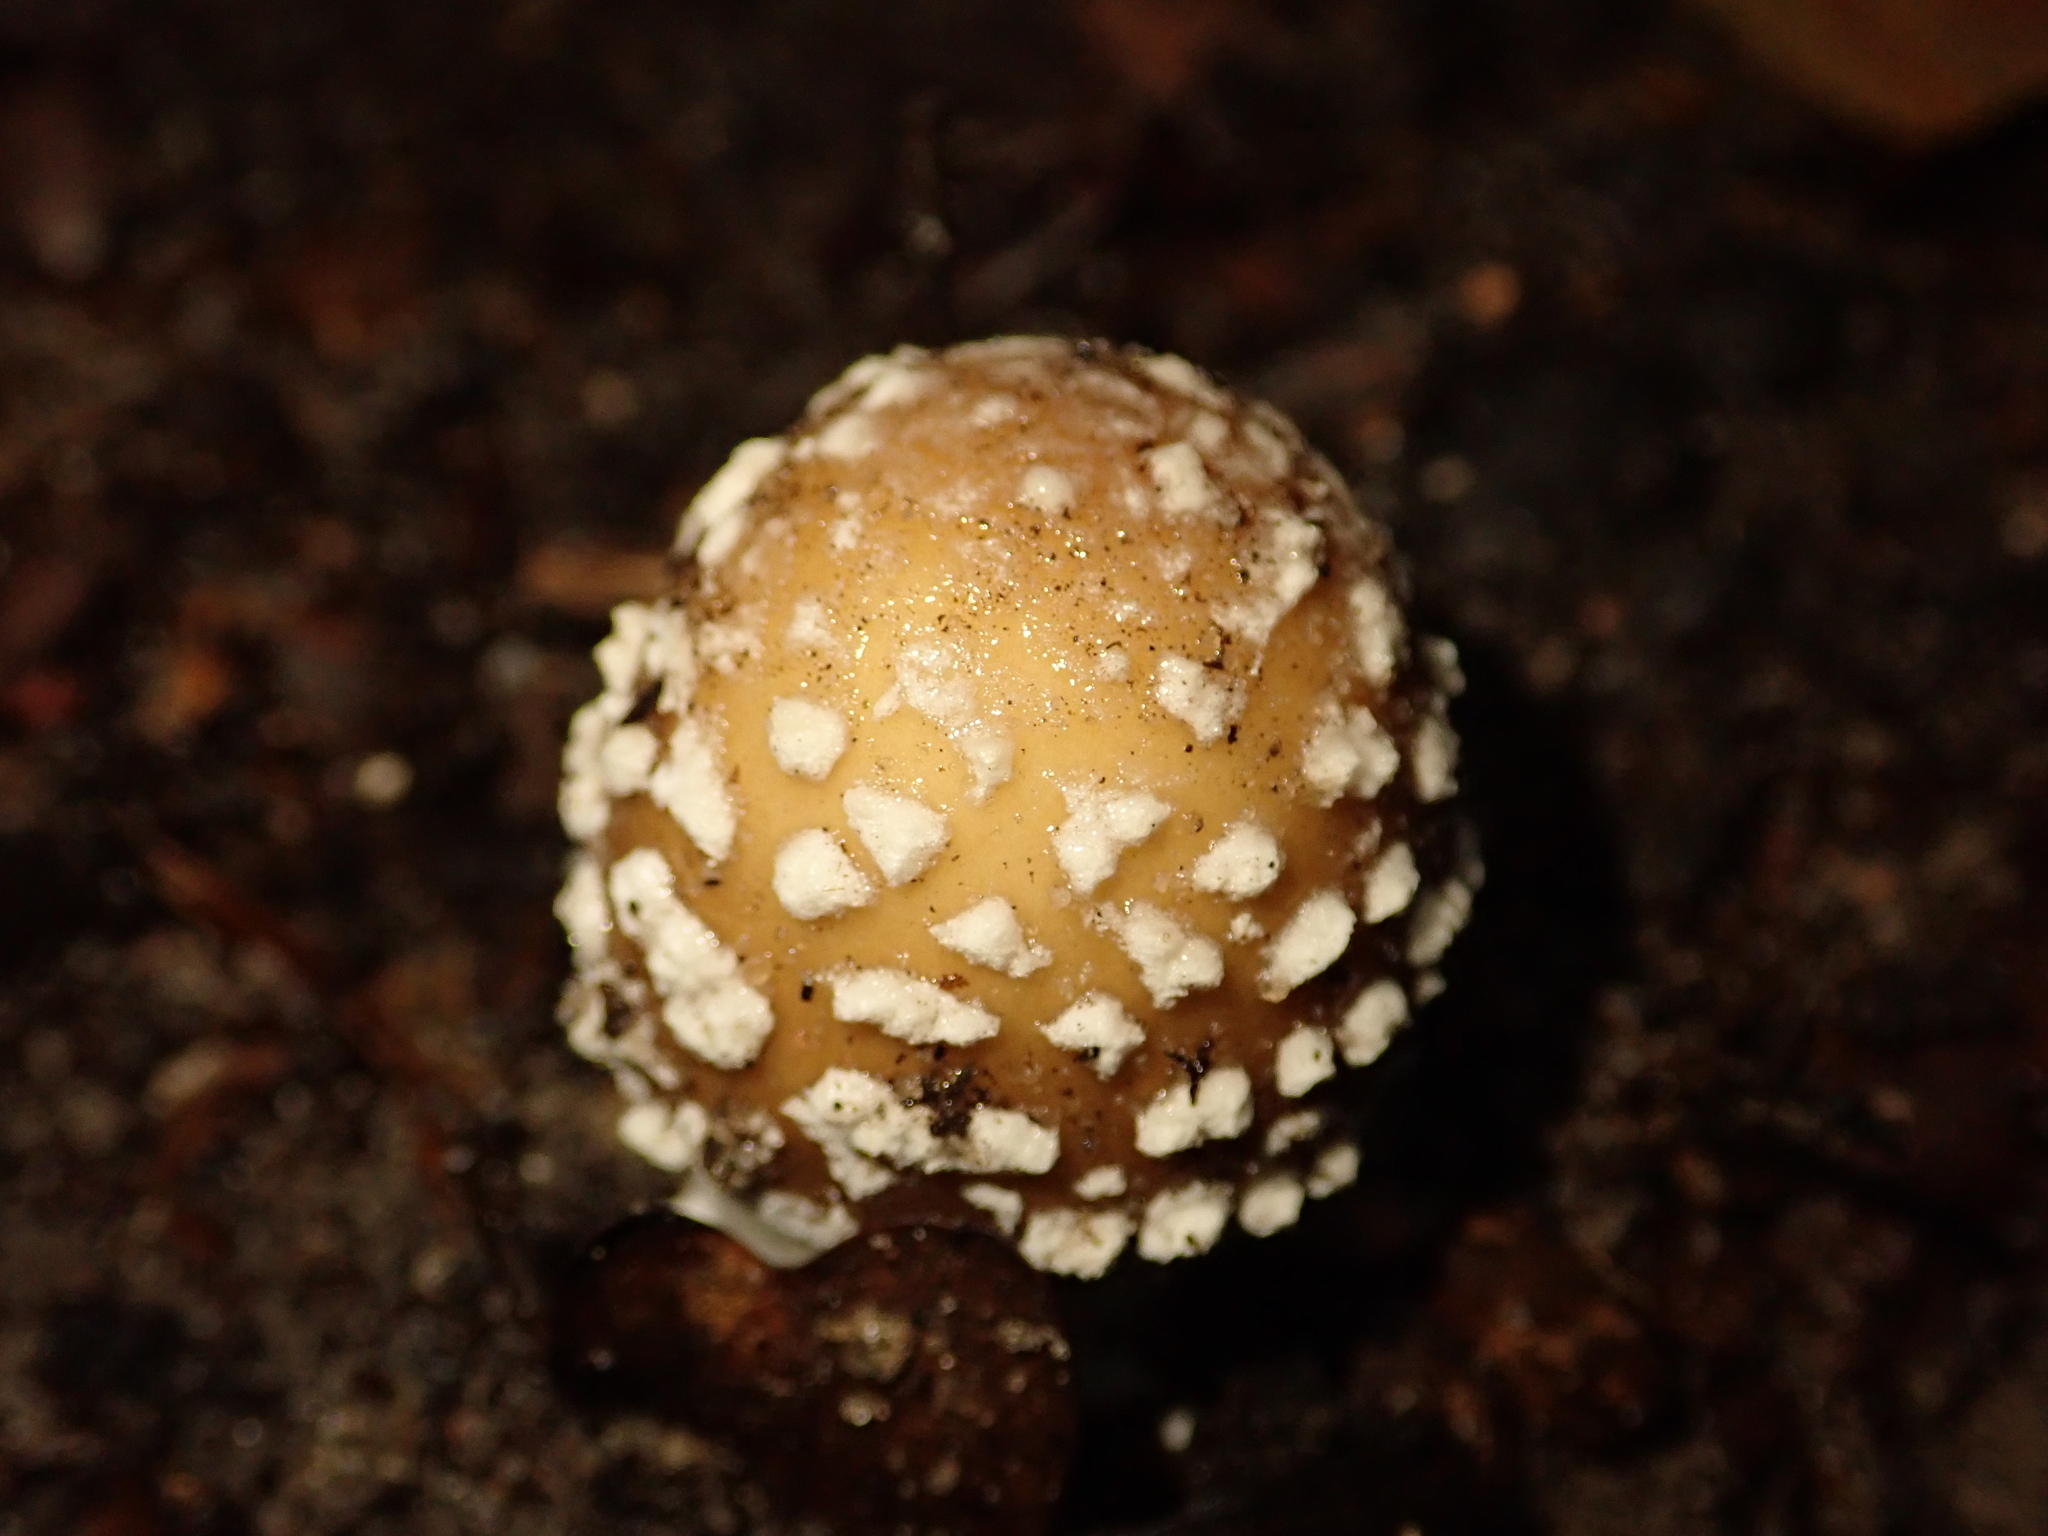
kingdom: Fungi
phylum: Basidiomycota
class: Agaricomycetes
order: Agaricales
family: Amanitaceae
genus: Amanita
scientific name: Amanita pantherina
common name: Panthercap
